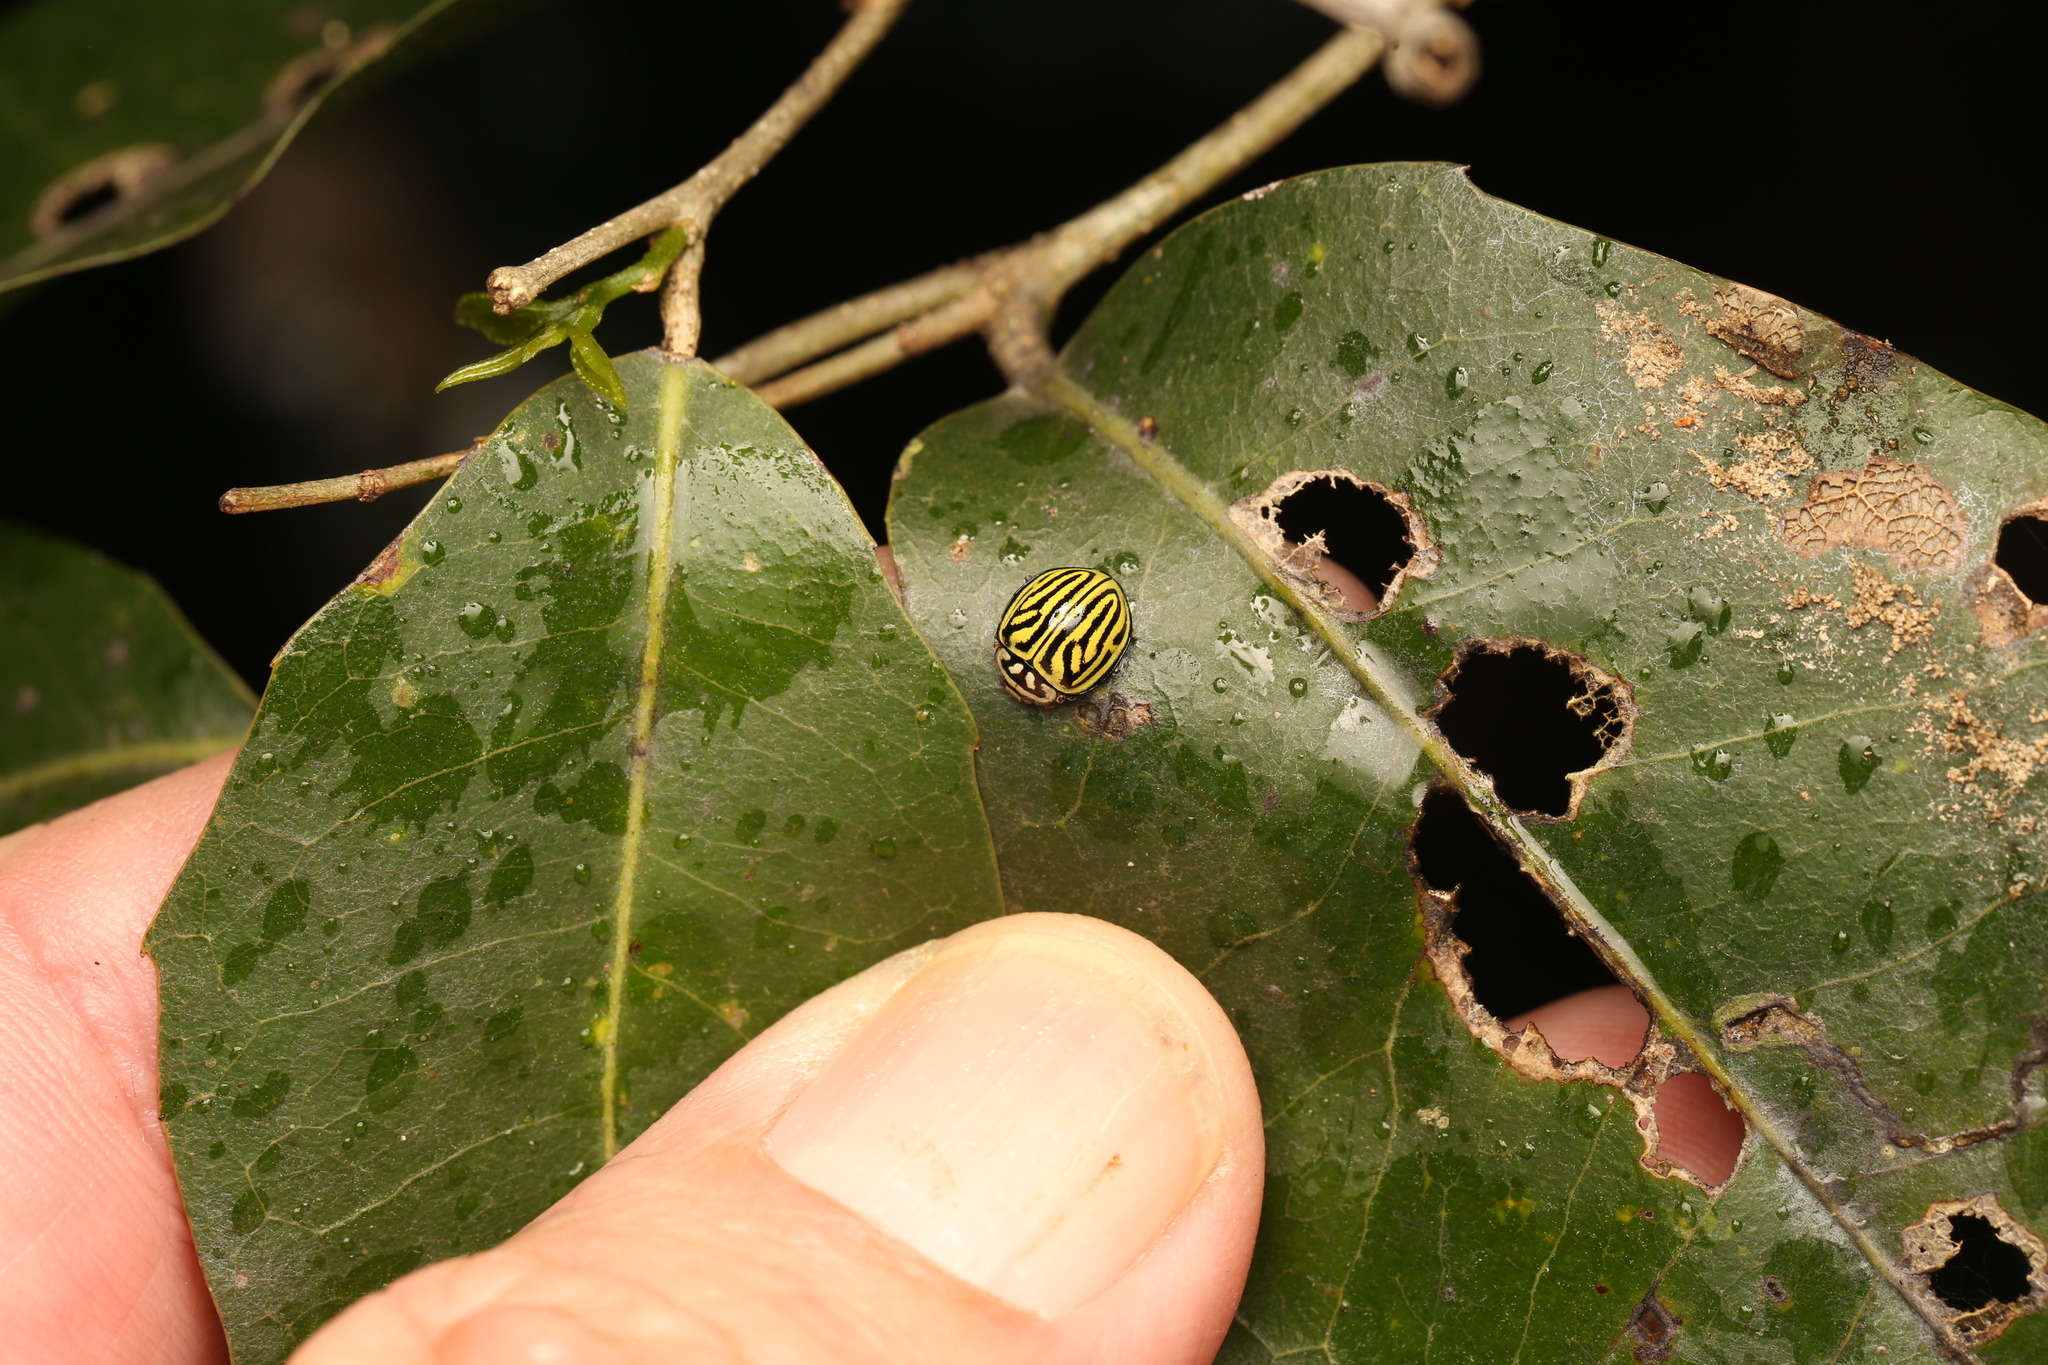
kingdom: Animalia
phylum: Arthropoda
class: Insecta
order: Coleoptera
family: Coccinellidae
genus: Archegleis
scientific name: Archegleis
